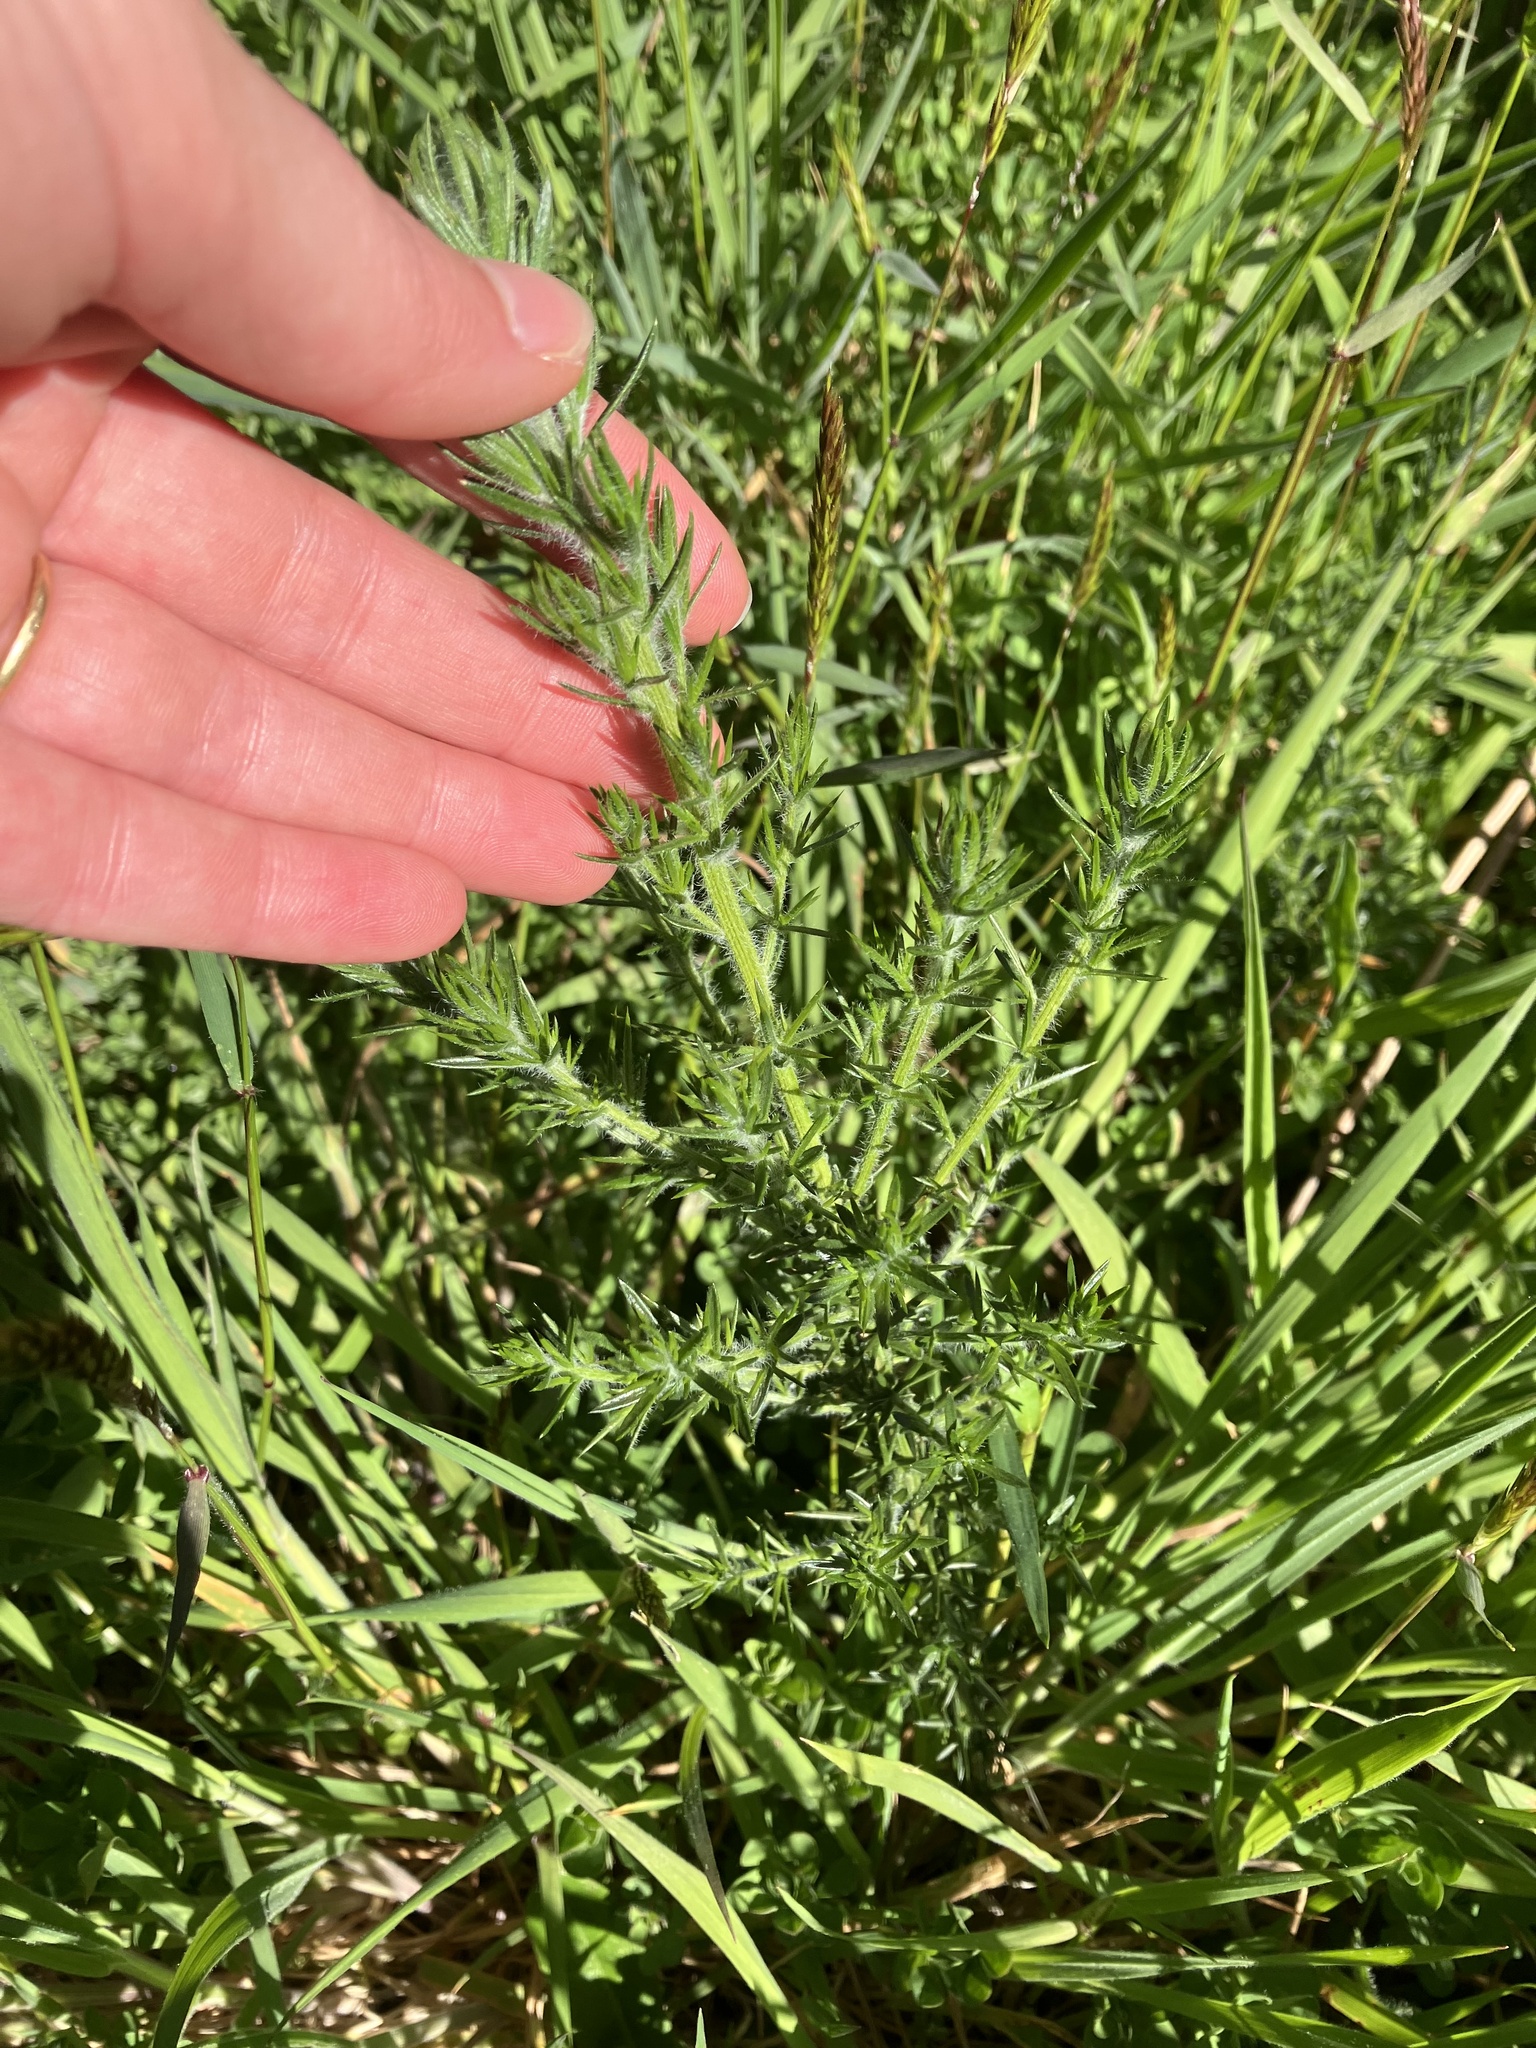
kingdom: Plantae
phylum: Tracheophyta
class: Magnoliopsida
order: Fabales
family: Fabaceae
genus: Ulex
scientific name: Ulex europaeus
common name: Common gorse
